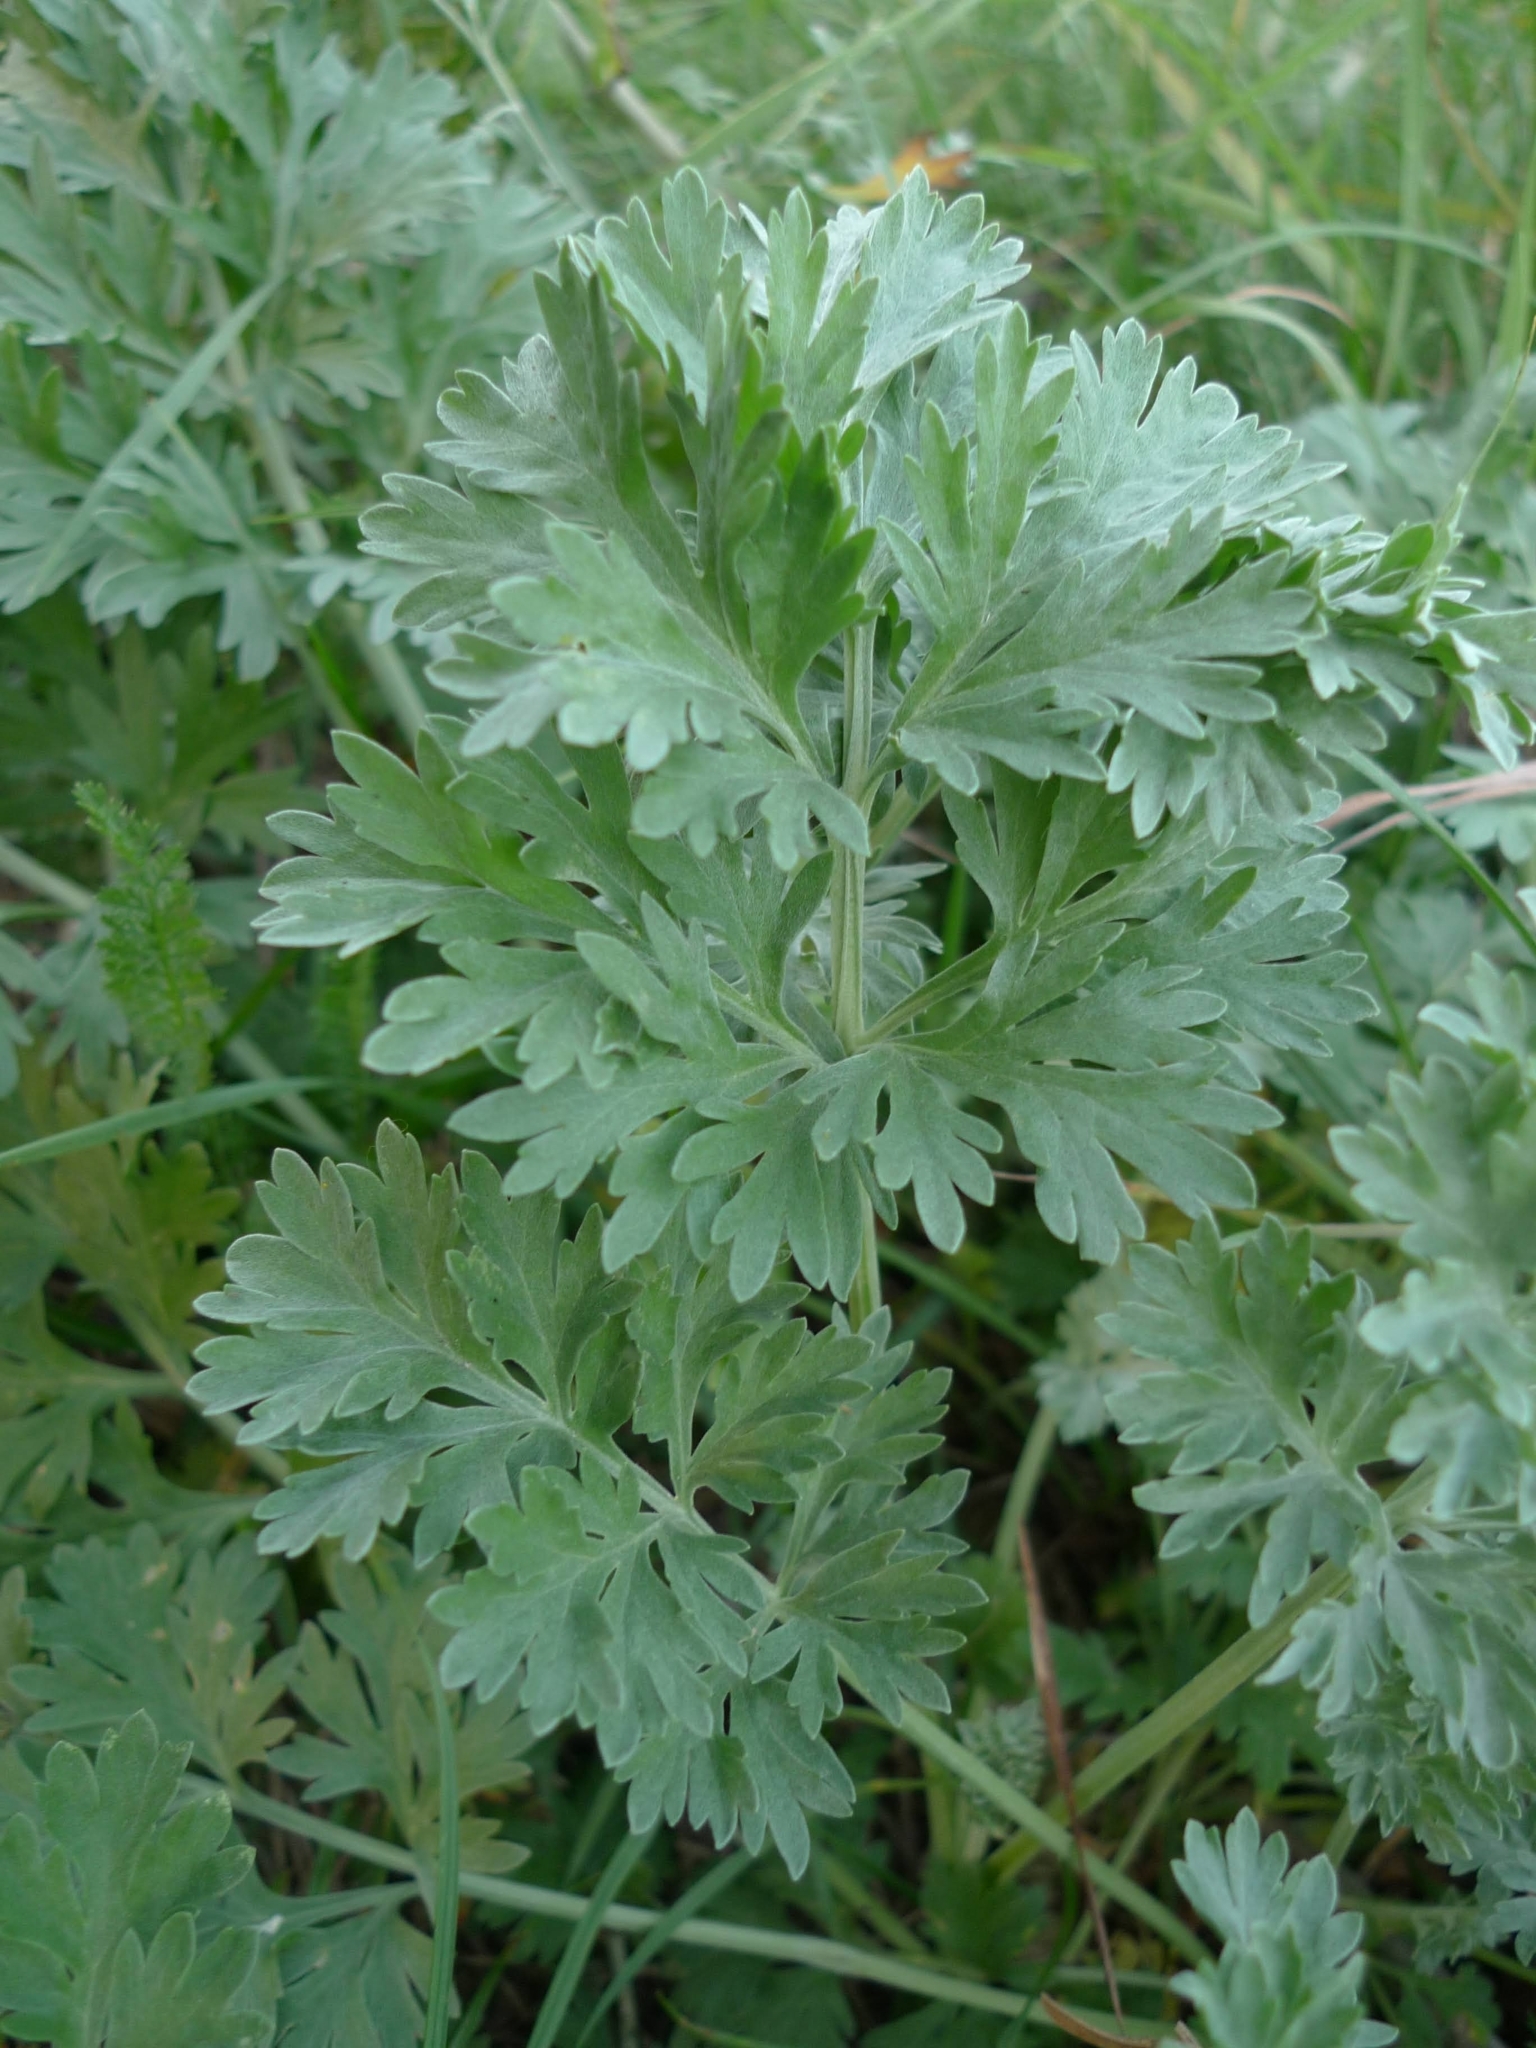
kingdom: Plantae
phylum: Tracheophyta
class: Magnoliopsida
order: Asterales
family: Asteraceae
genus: Artemisia
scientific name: Artemisia absinthium
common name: Wormwood
